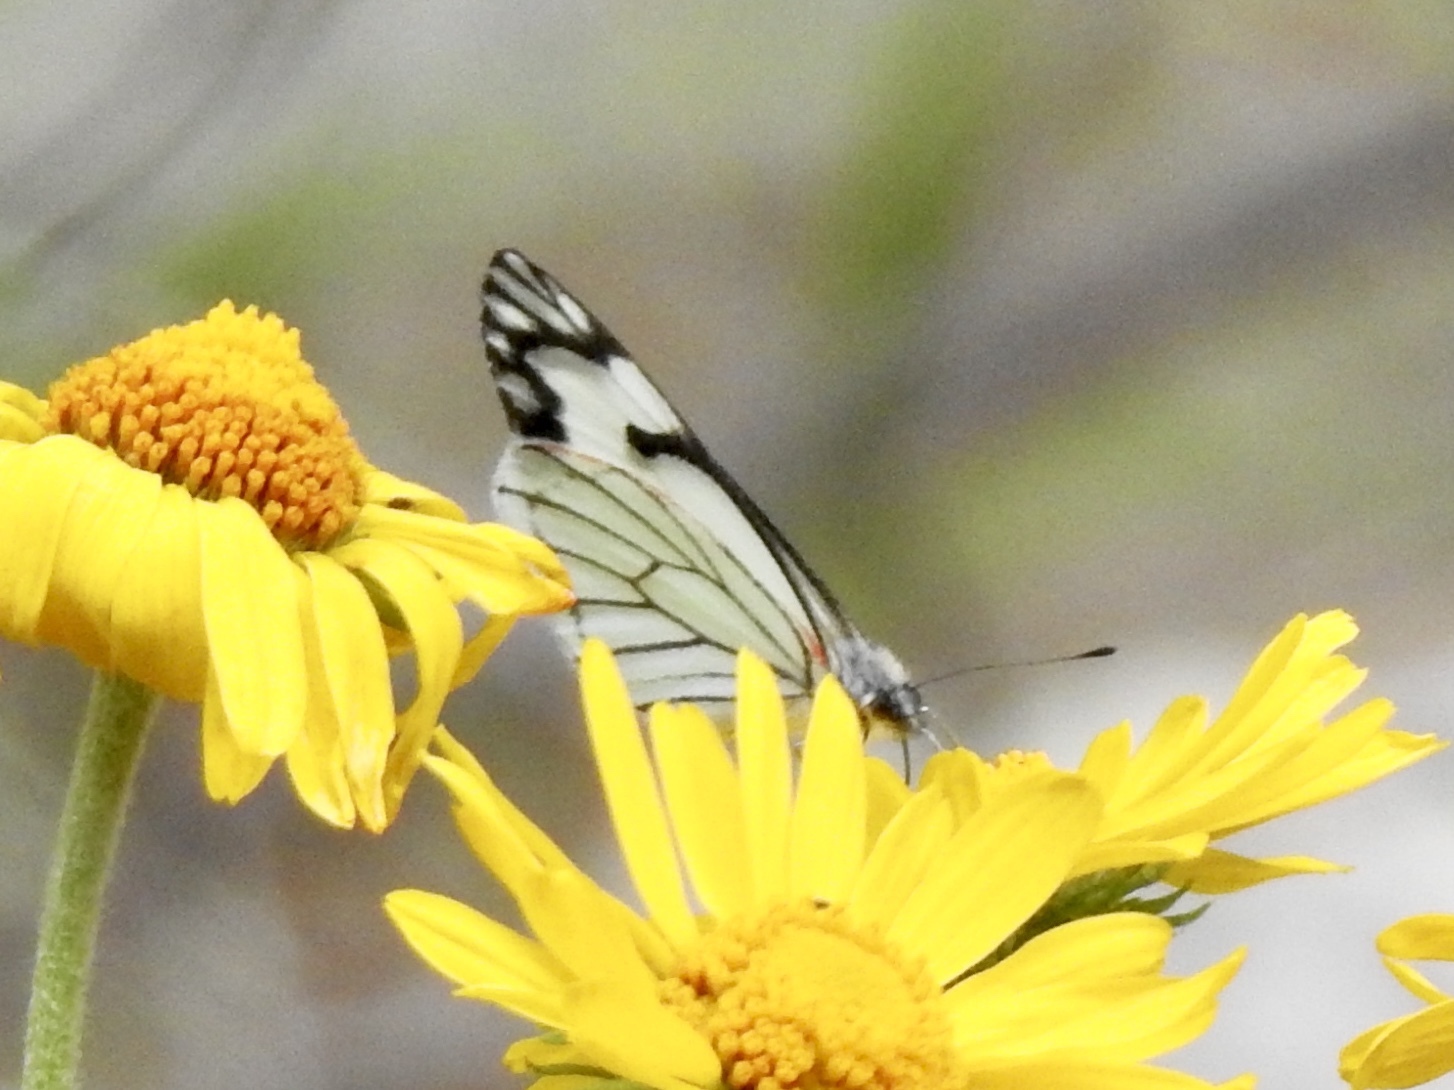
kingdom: Animalia
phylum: Arthropoda
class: Insecta
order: Lepidoptera
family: Pieridae
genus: Neophasia
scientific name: Neophasia menapia
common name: Pine white
